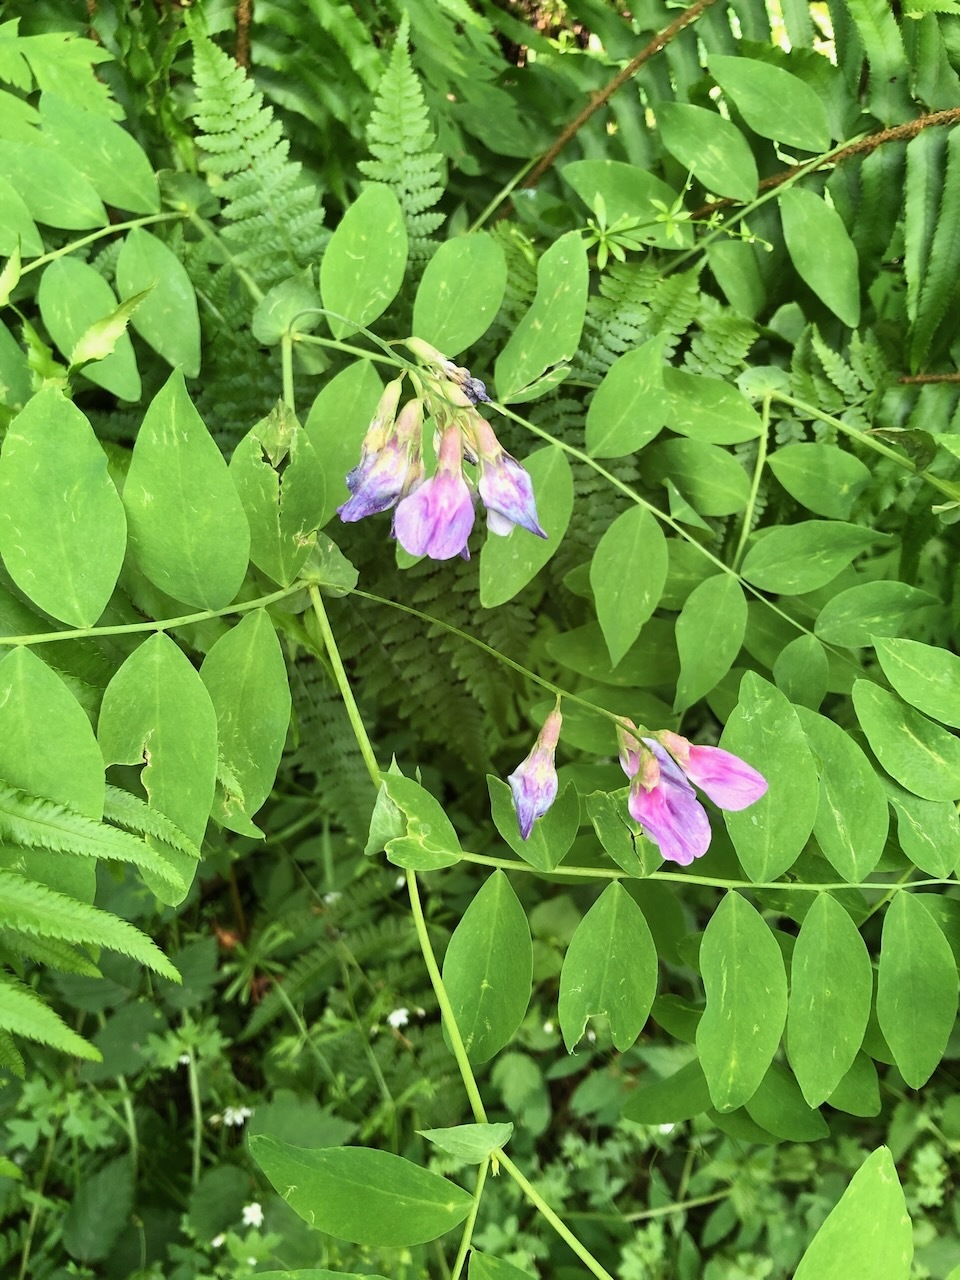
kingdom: Plantae
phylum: Tracheophyta
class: Magnoliopsida
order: Fabales
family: Fabaceae
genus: Lathyrus
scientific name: Lathyrus polyphyllus
